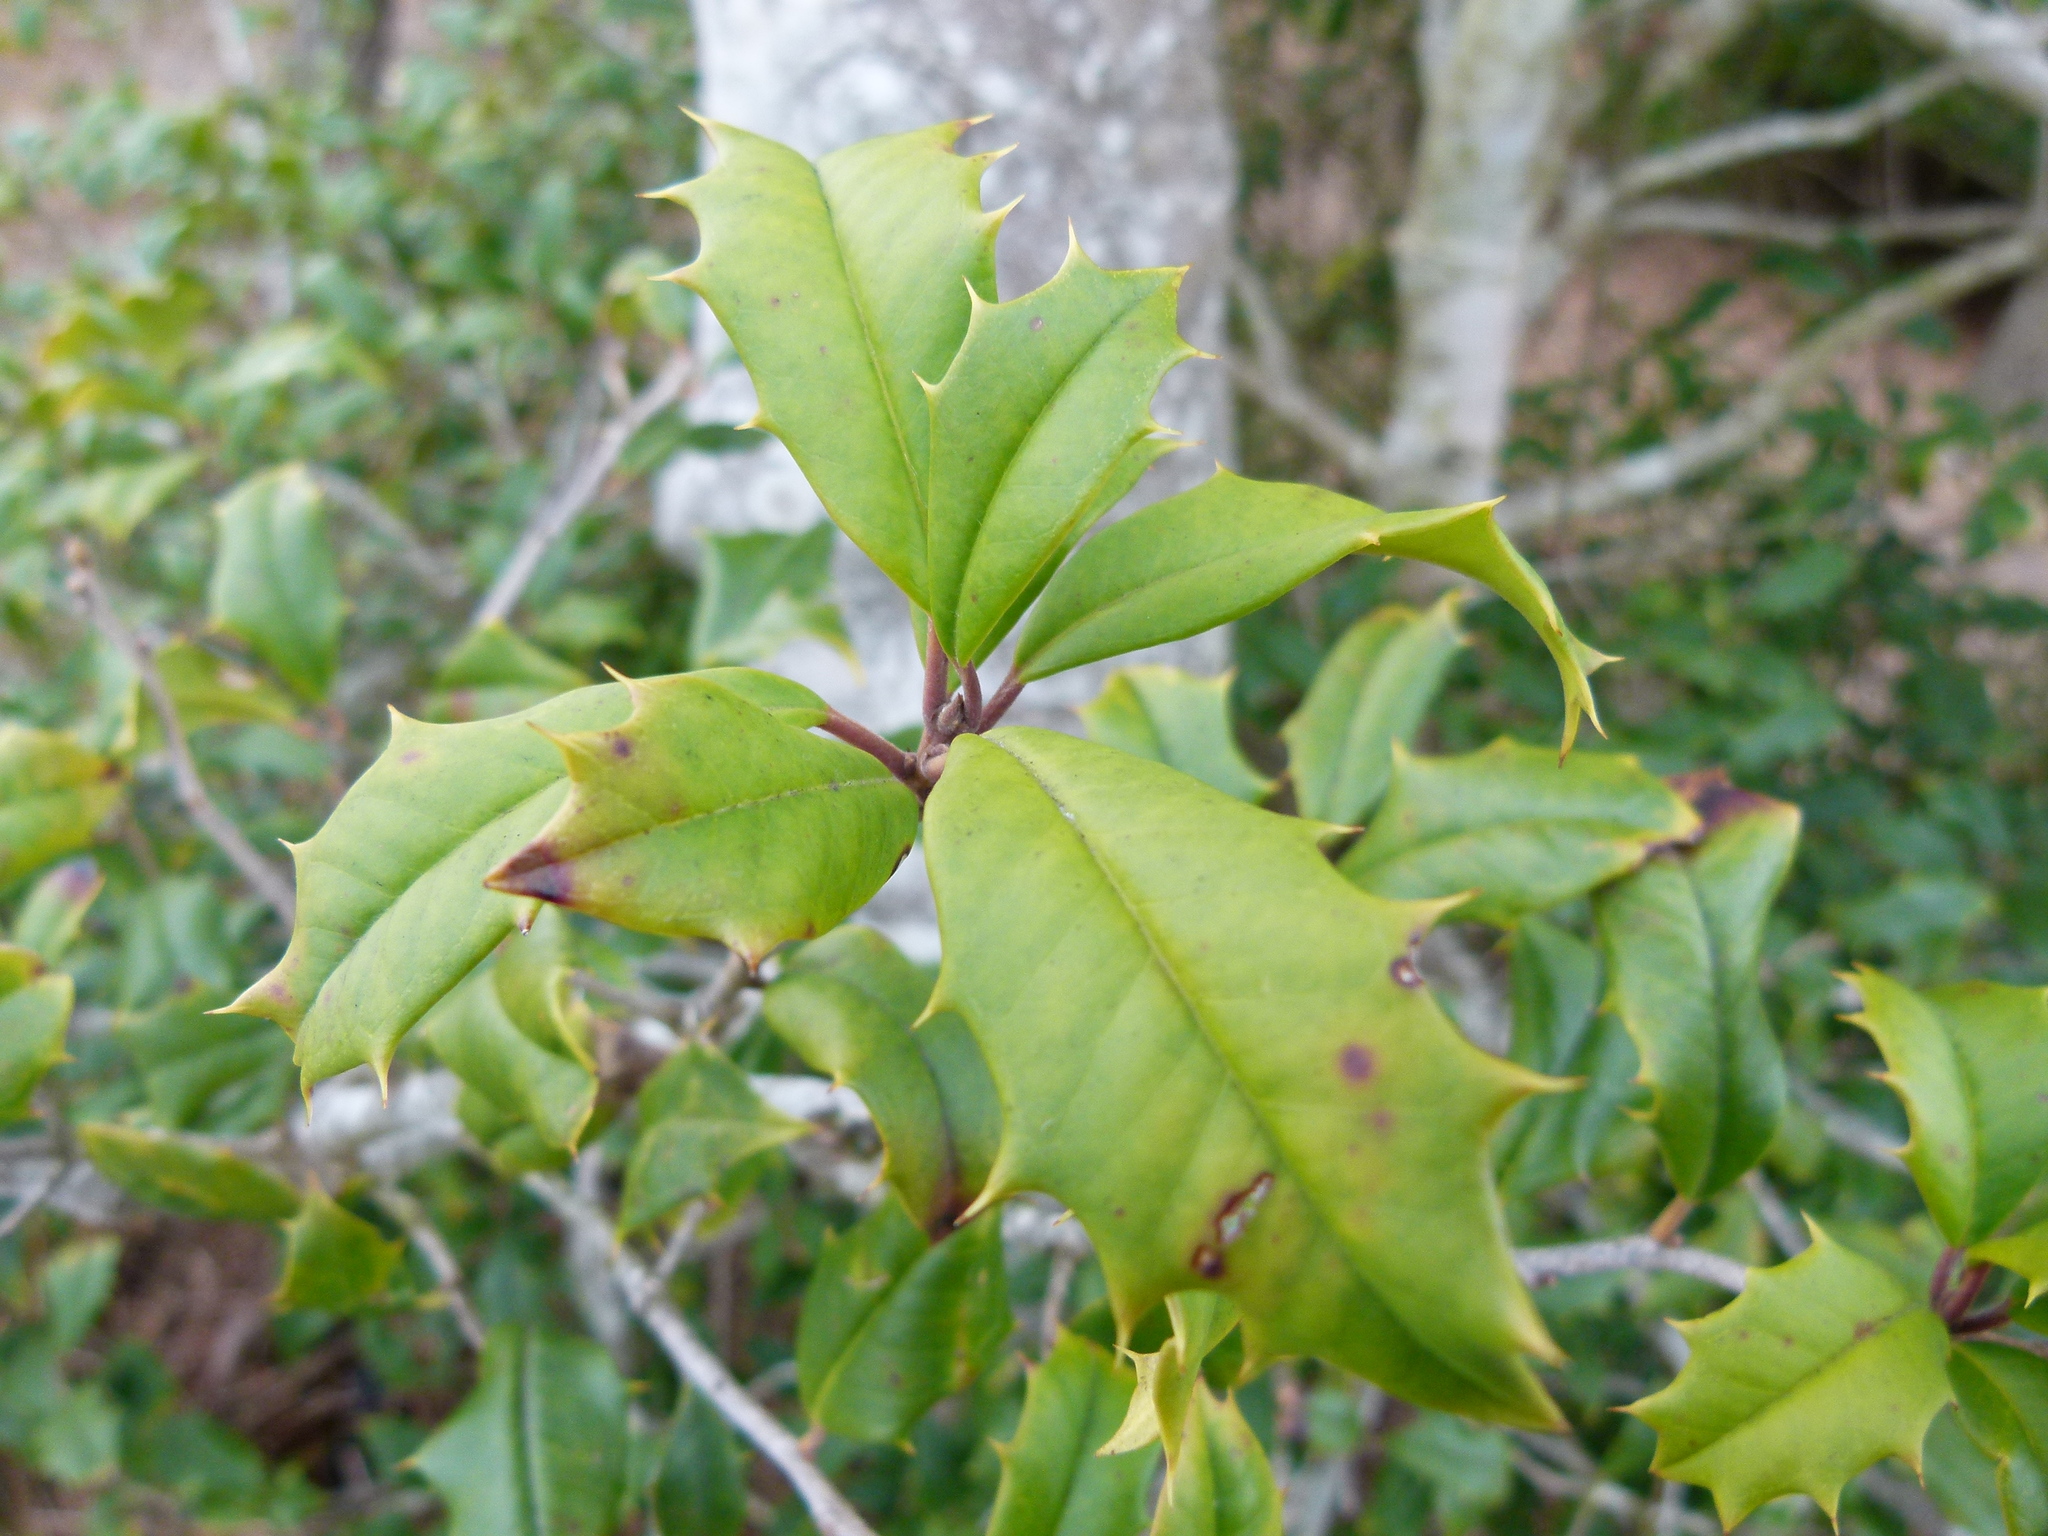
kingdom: Plantae
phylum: Tracheophyta
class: Magnoliopsida
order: Aquifoliales
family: Aquifoliaceae
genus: Ilex
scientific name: Ilex opaca
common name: American holly
